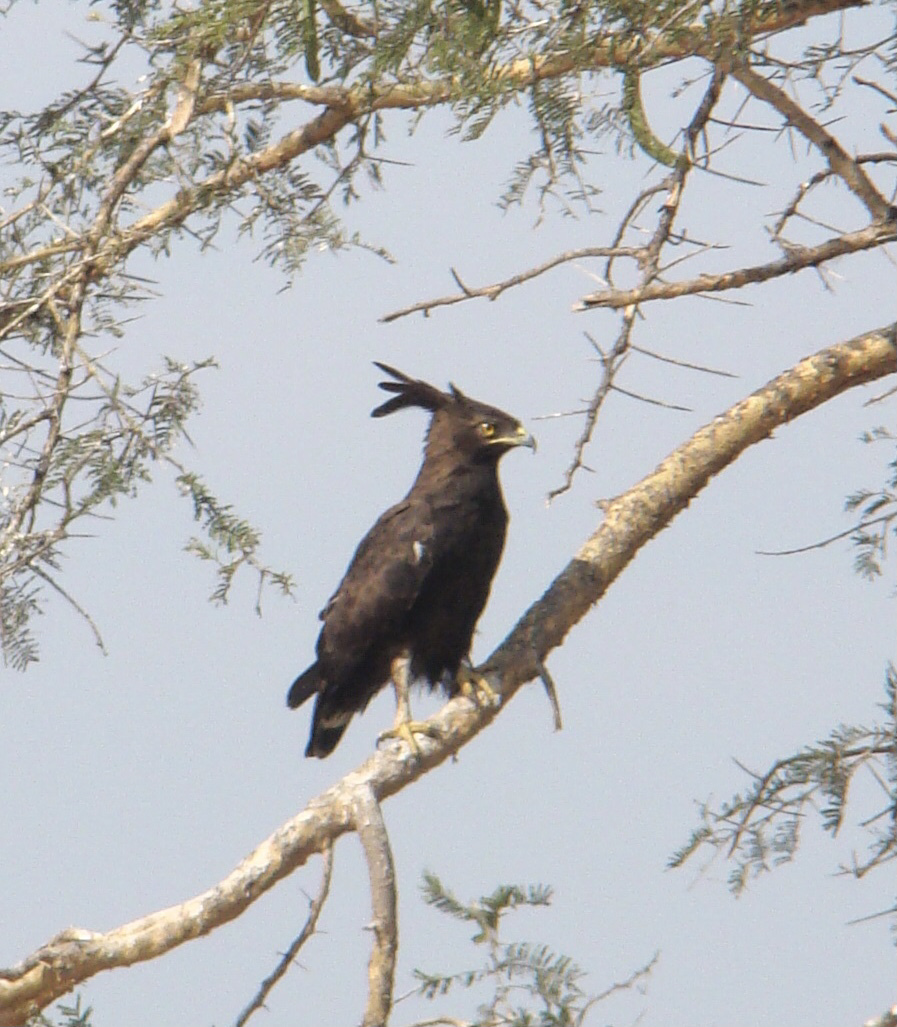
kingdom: Animalia
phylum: Chordata
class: Aves
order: Accipitriformes
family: Accipitridae
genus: Lophaetus
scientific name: Lophaetus occipitalis
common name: Long-crested eagle
